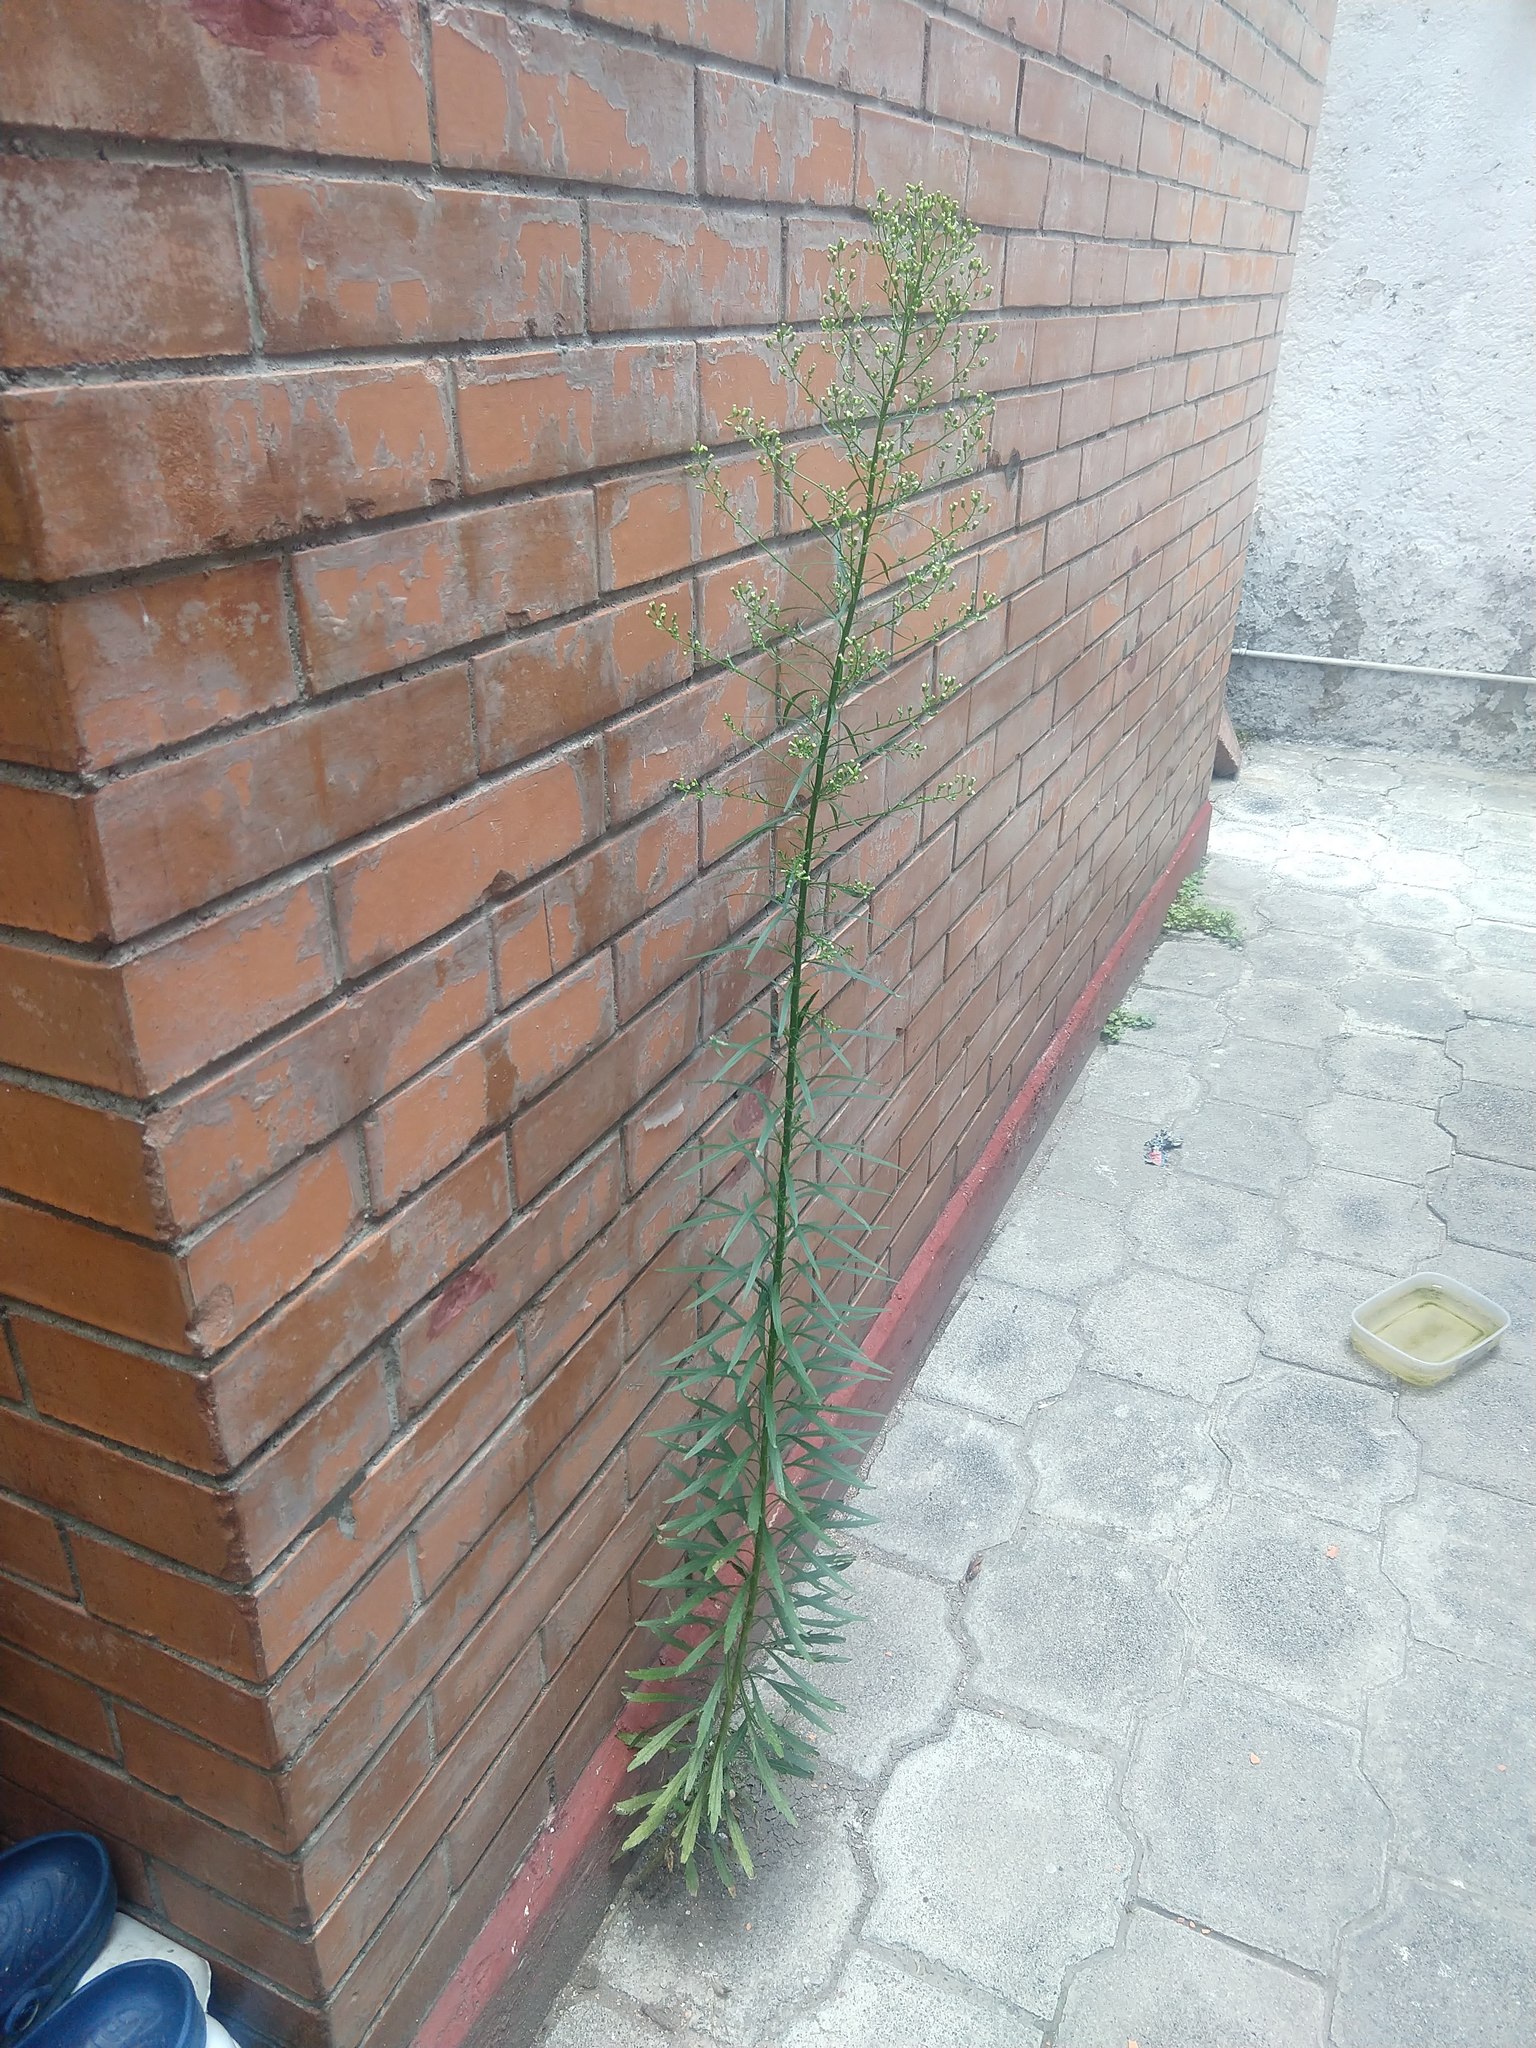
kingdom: Plantae
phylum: Tracheophyta
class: Magnoliopsida
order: Asterales
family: Asteraceae
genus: Erigeron
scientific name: Erigeron canadensis
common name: Canadian fleabane
